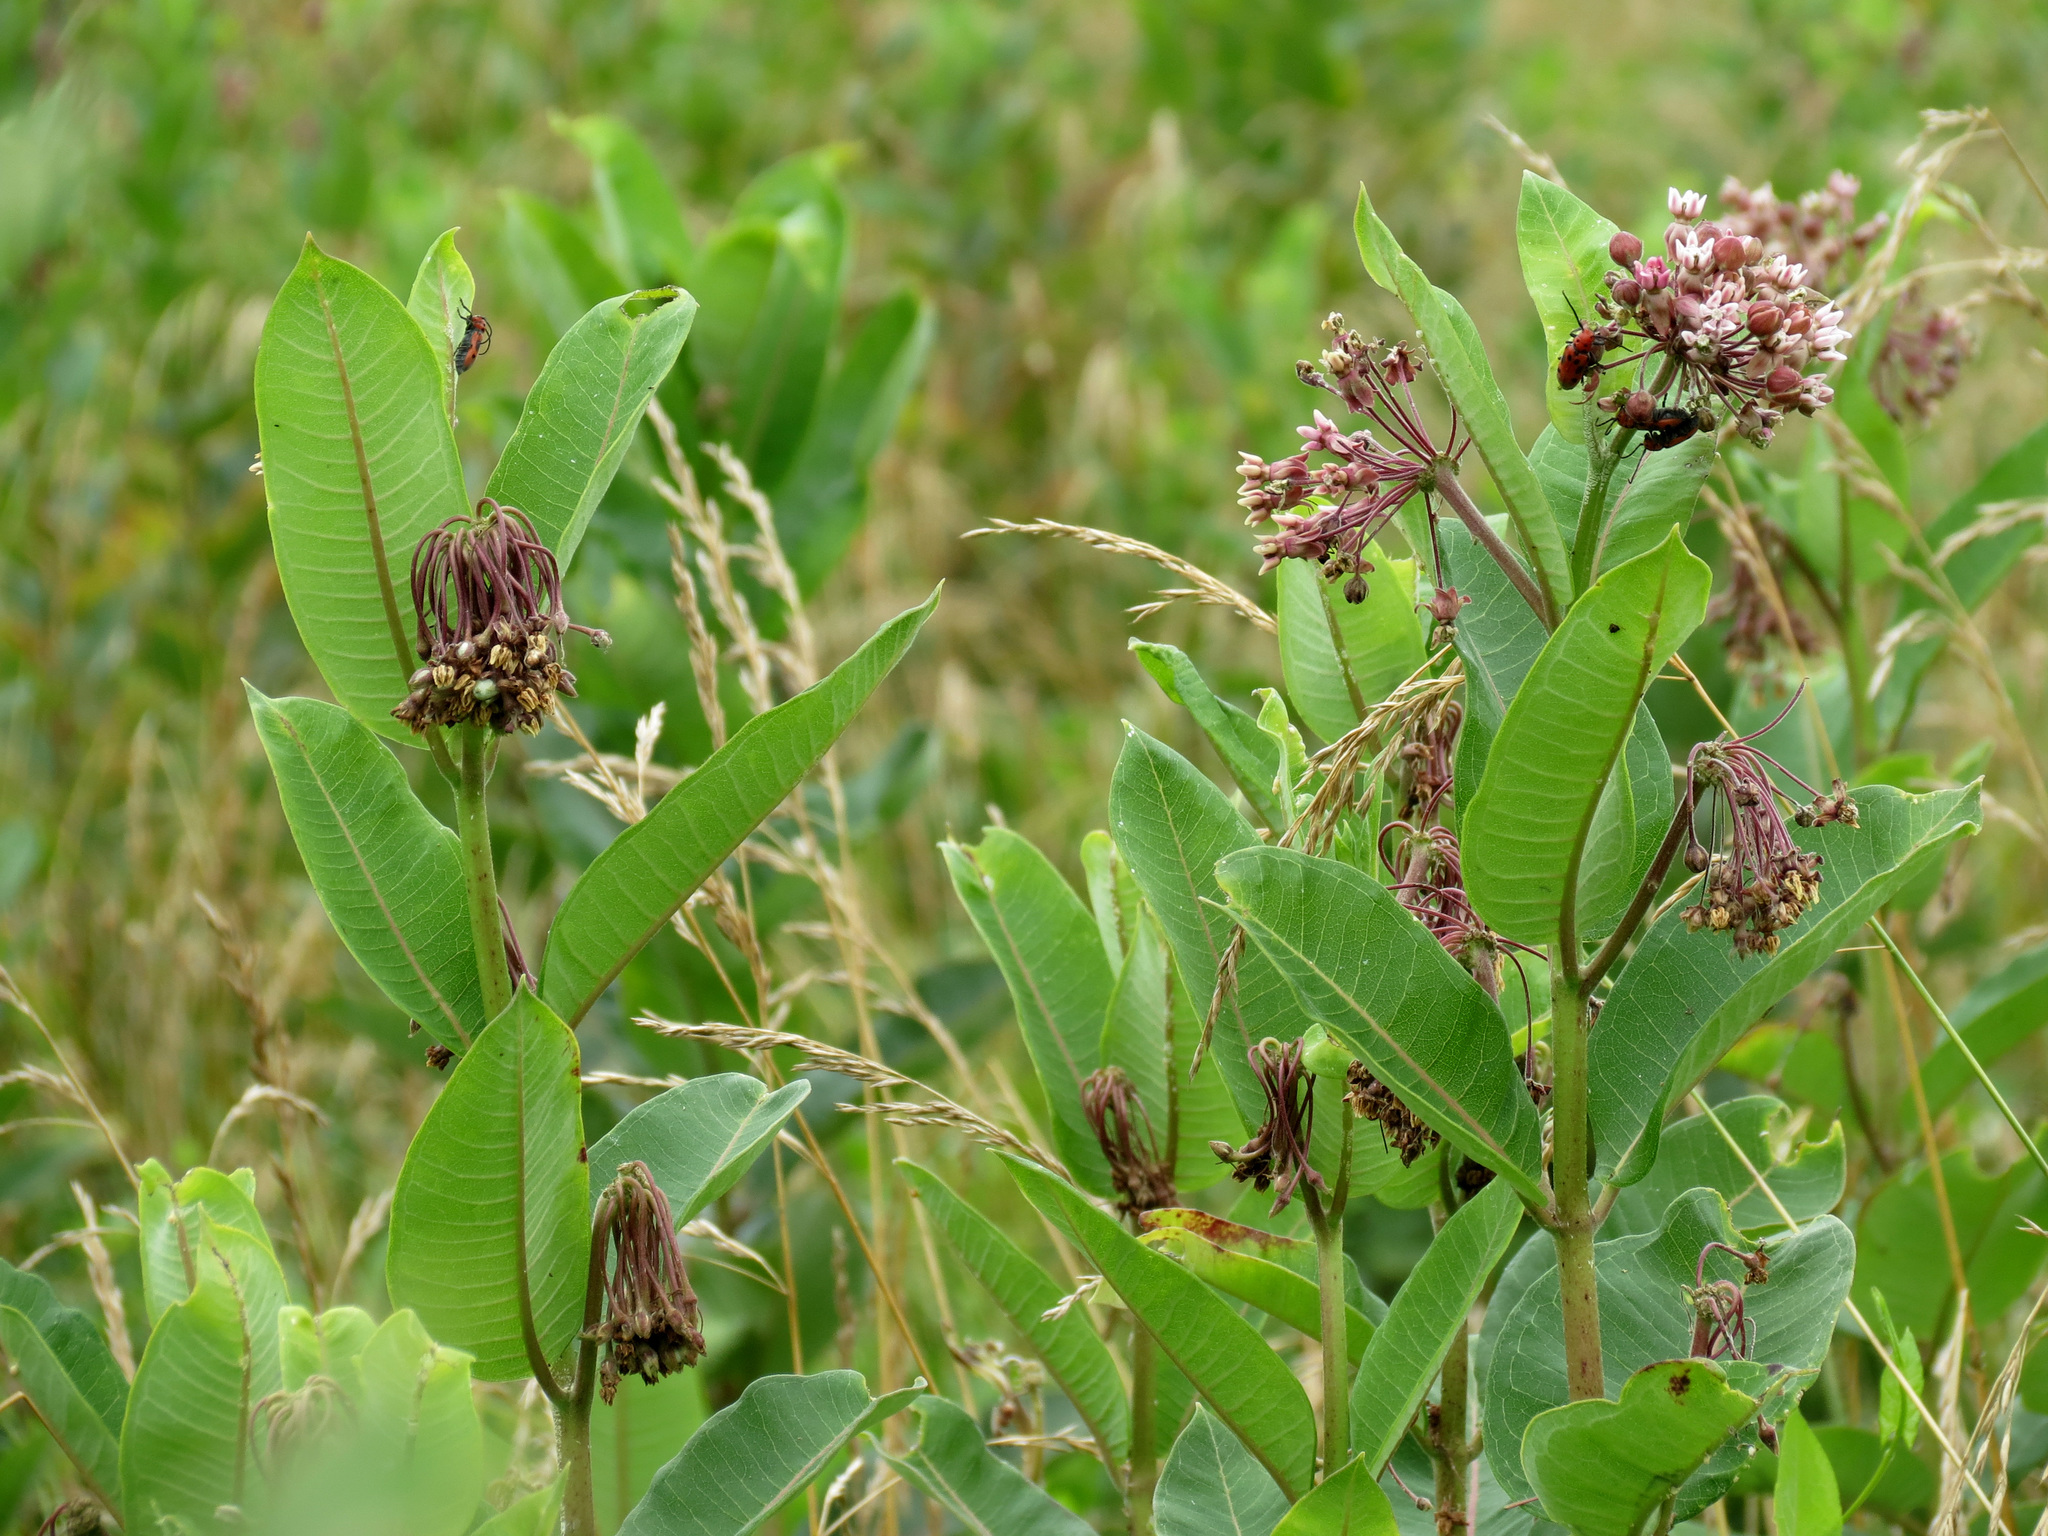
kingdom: Plantae
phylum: Tracheophyta
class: Magnoliopsida
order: Gentianales
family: Apocynaceae
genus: Asclepias
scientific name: Asclepias syriaca
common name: Common milkweed
